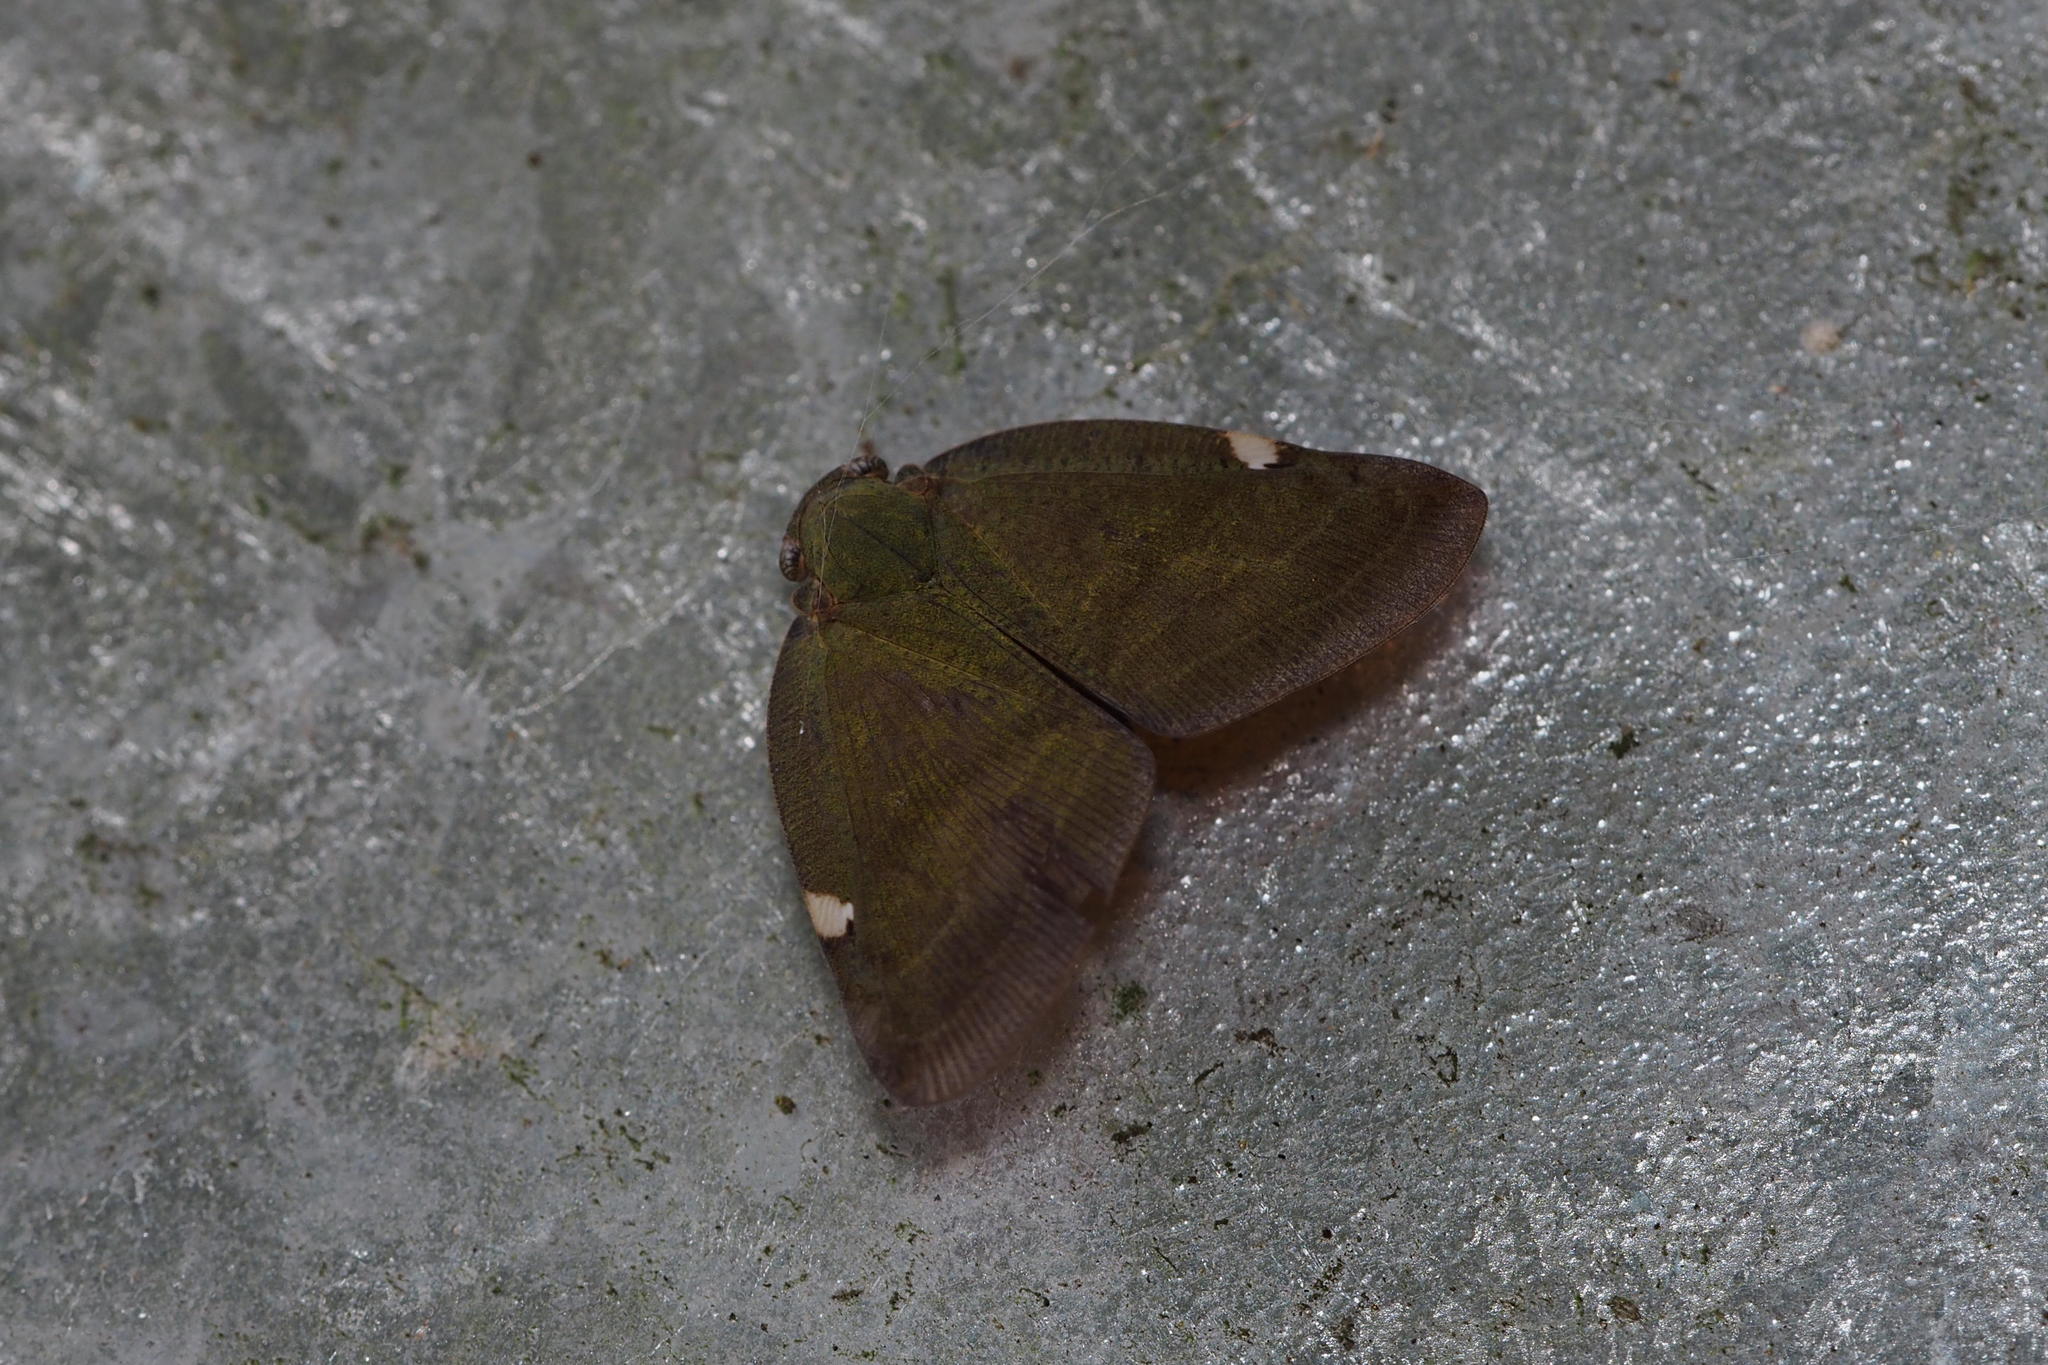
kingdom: Animalia
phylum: Arthropoda
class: Insecta
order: Hemiptera
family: Ricaniidae
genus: Pochazia
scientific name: Pochazia albomaculata
